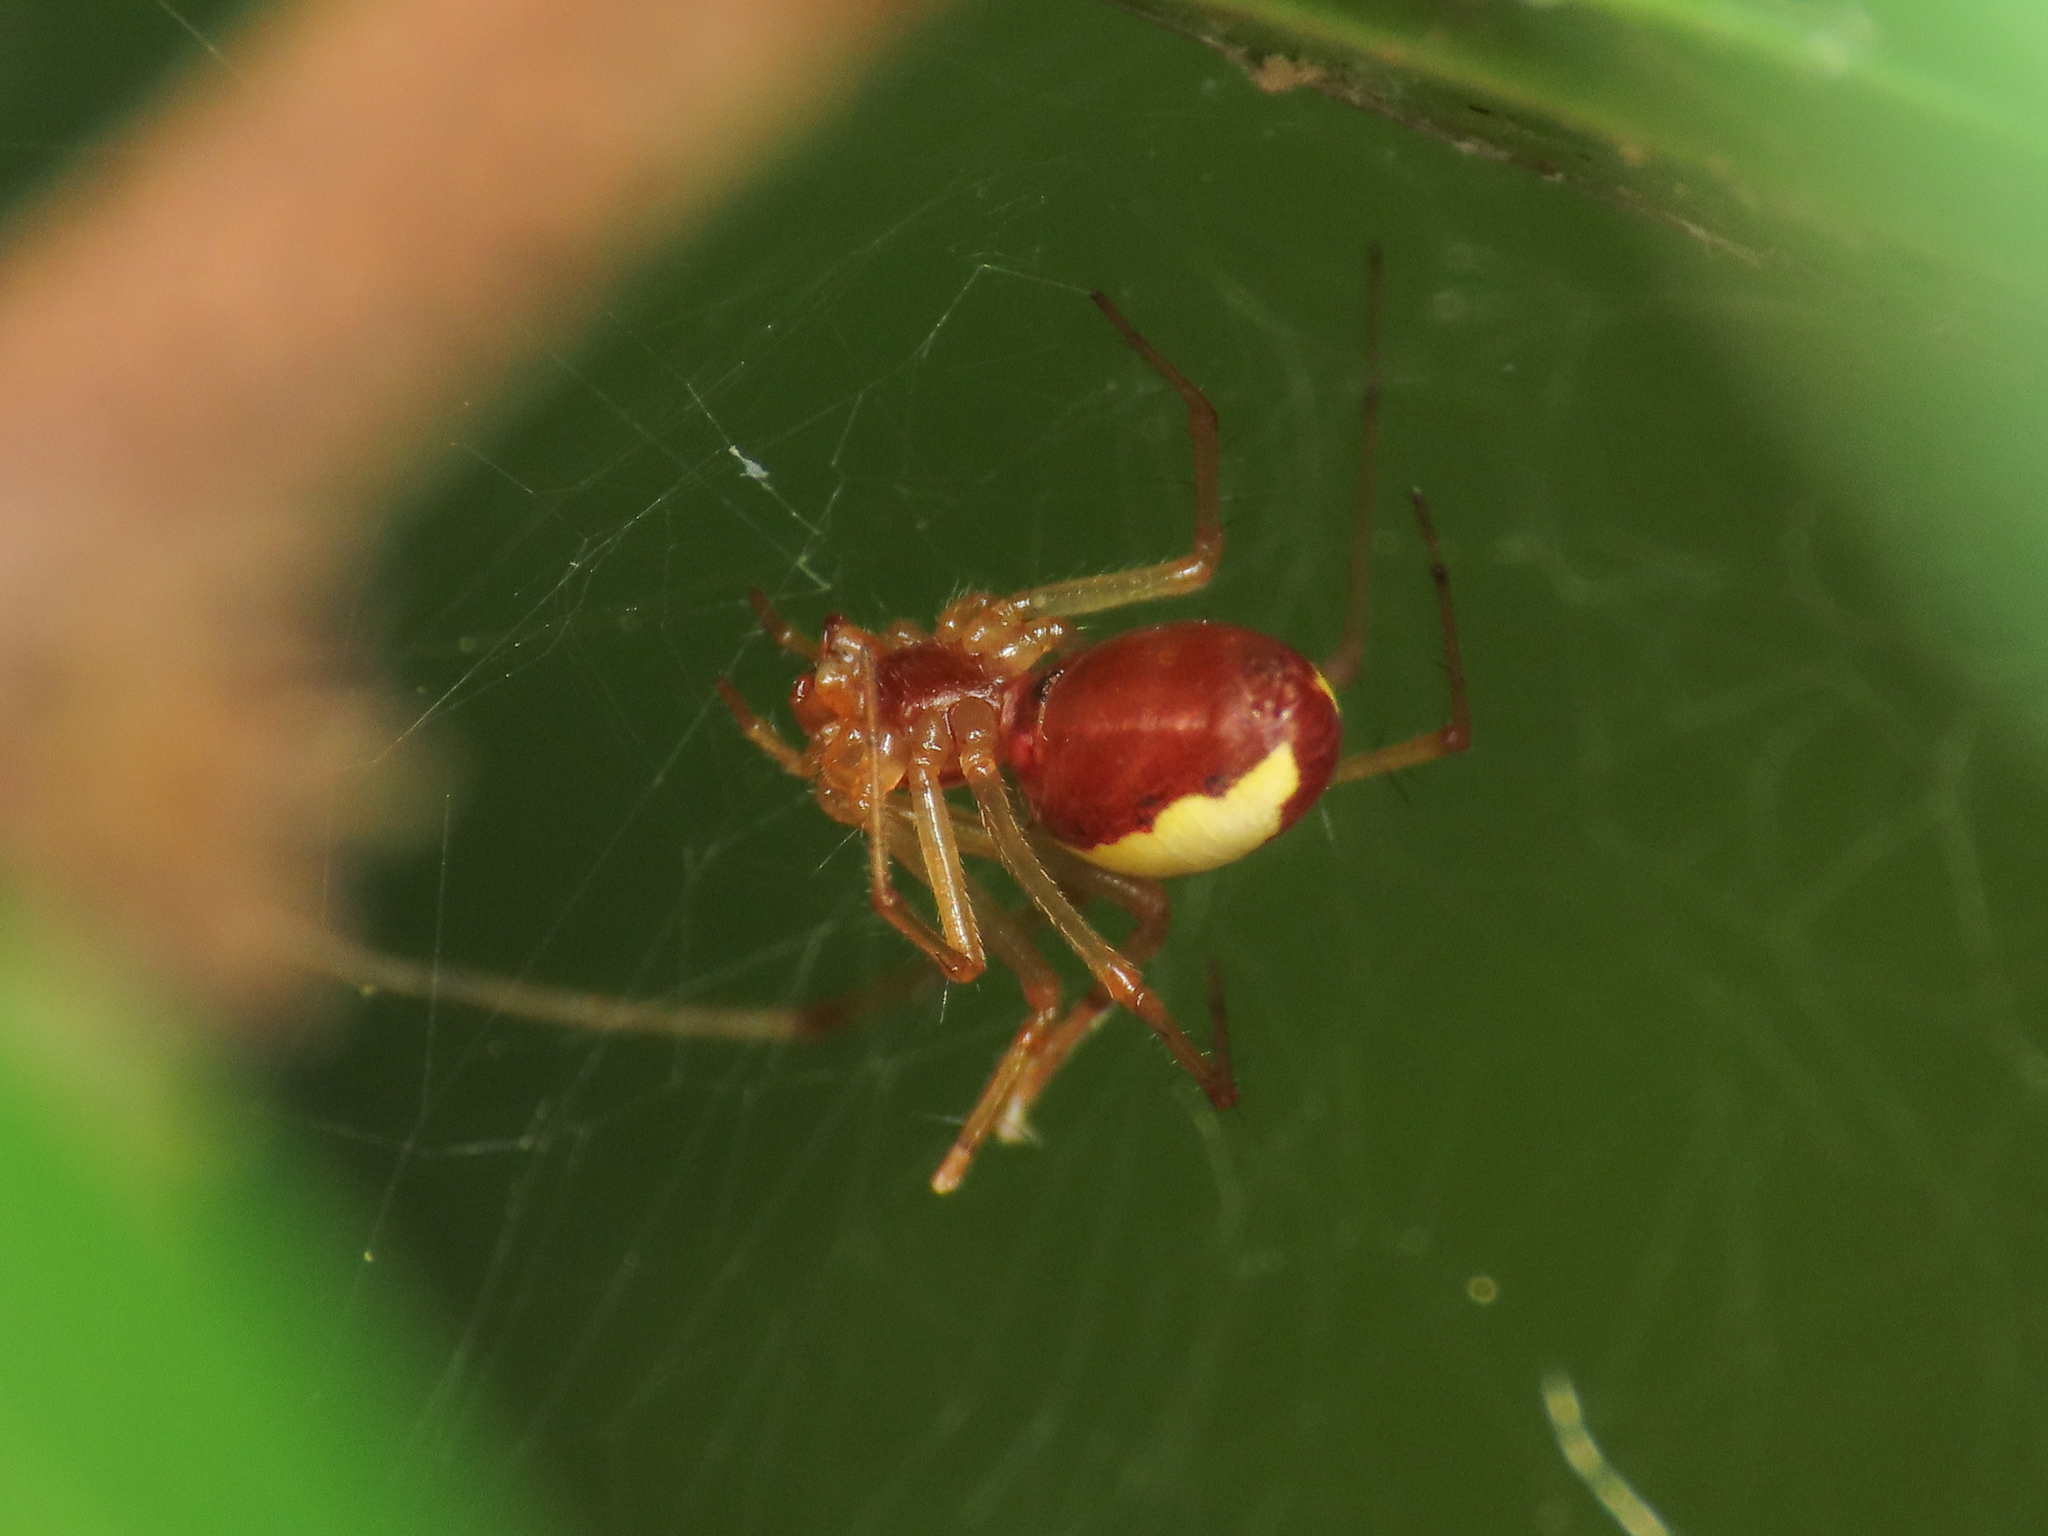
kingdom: Animalia
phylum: Arthropoda
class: Arachnida
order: Araneae
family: Linyphiidae
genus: Linyphia
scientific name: Linyphia mimonti
